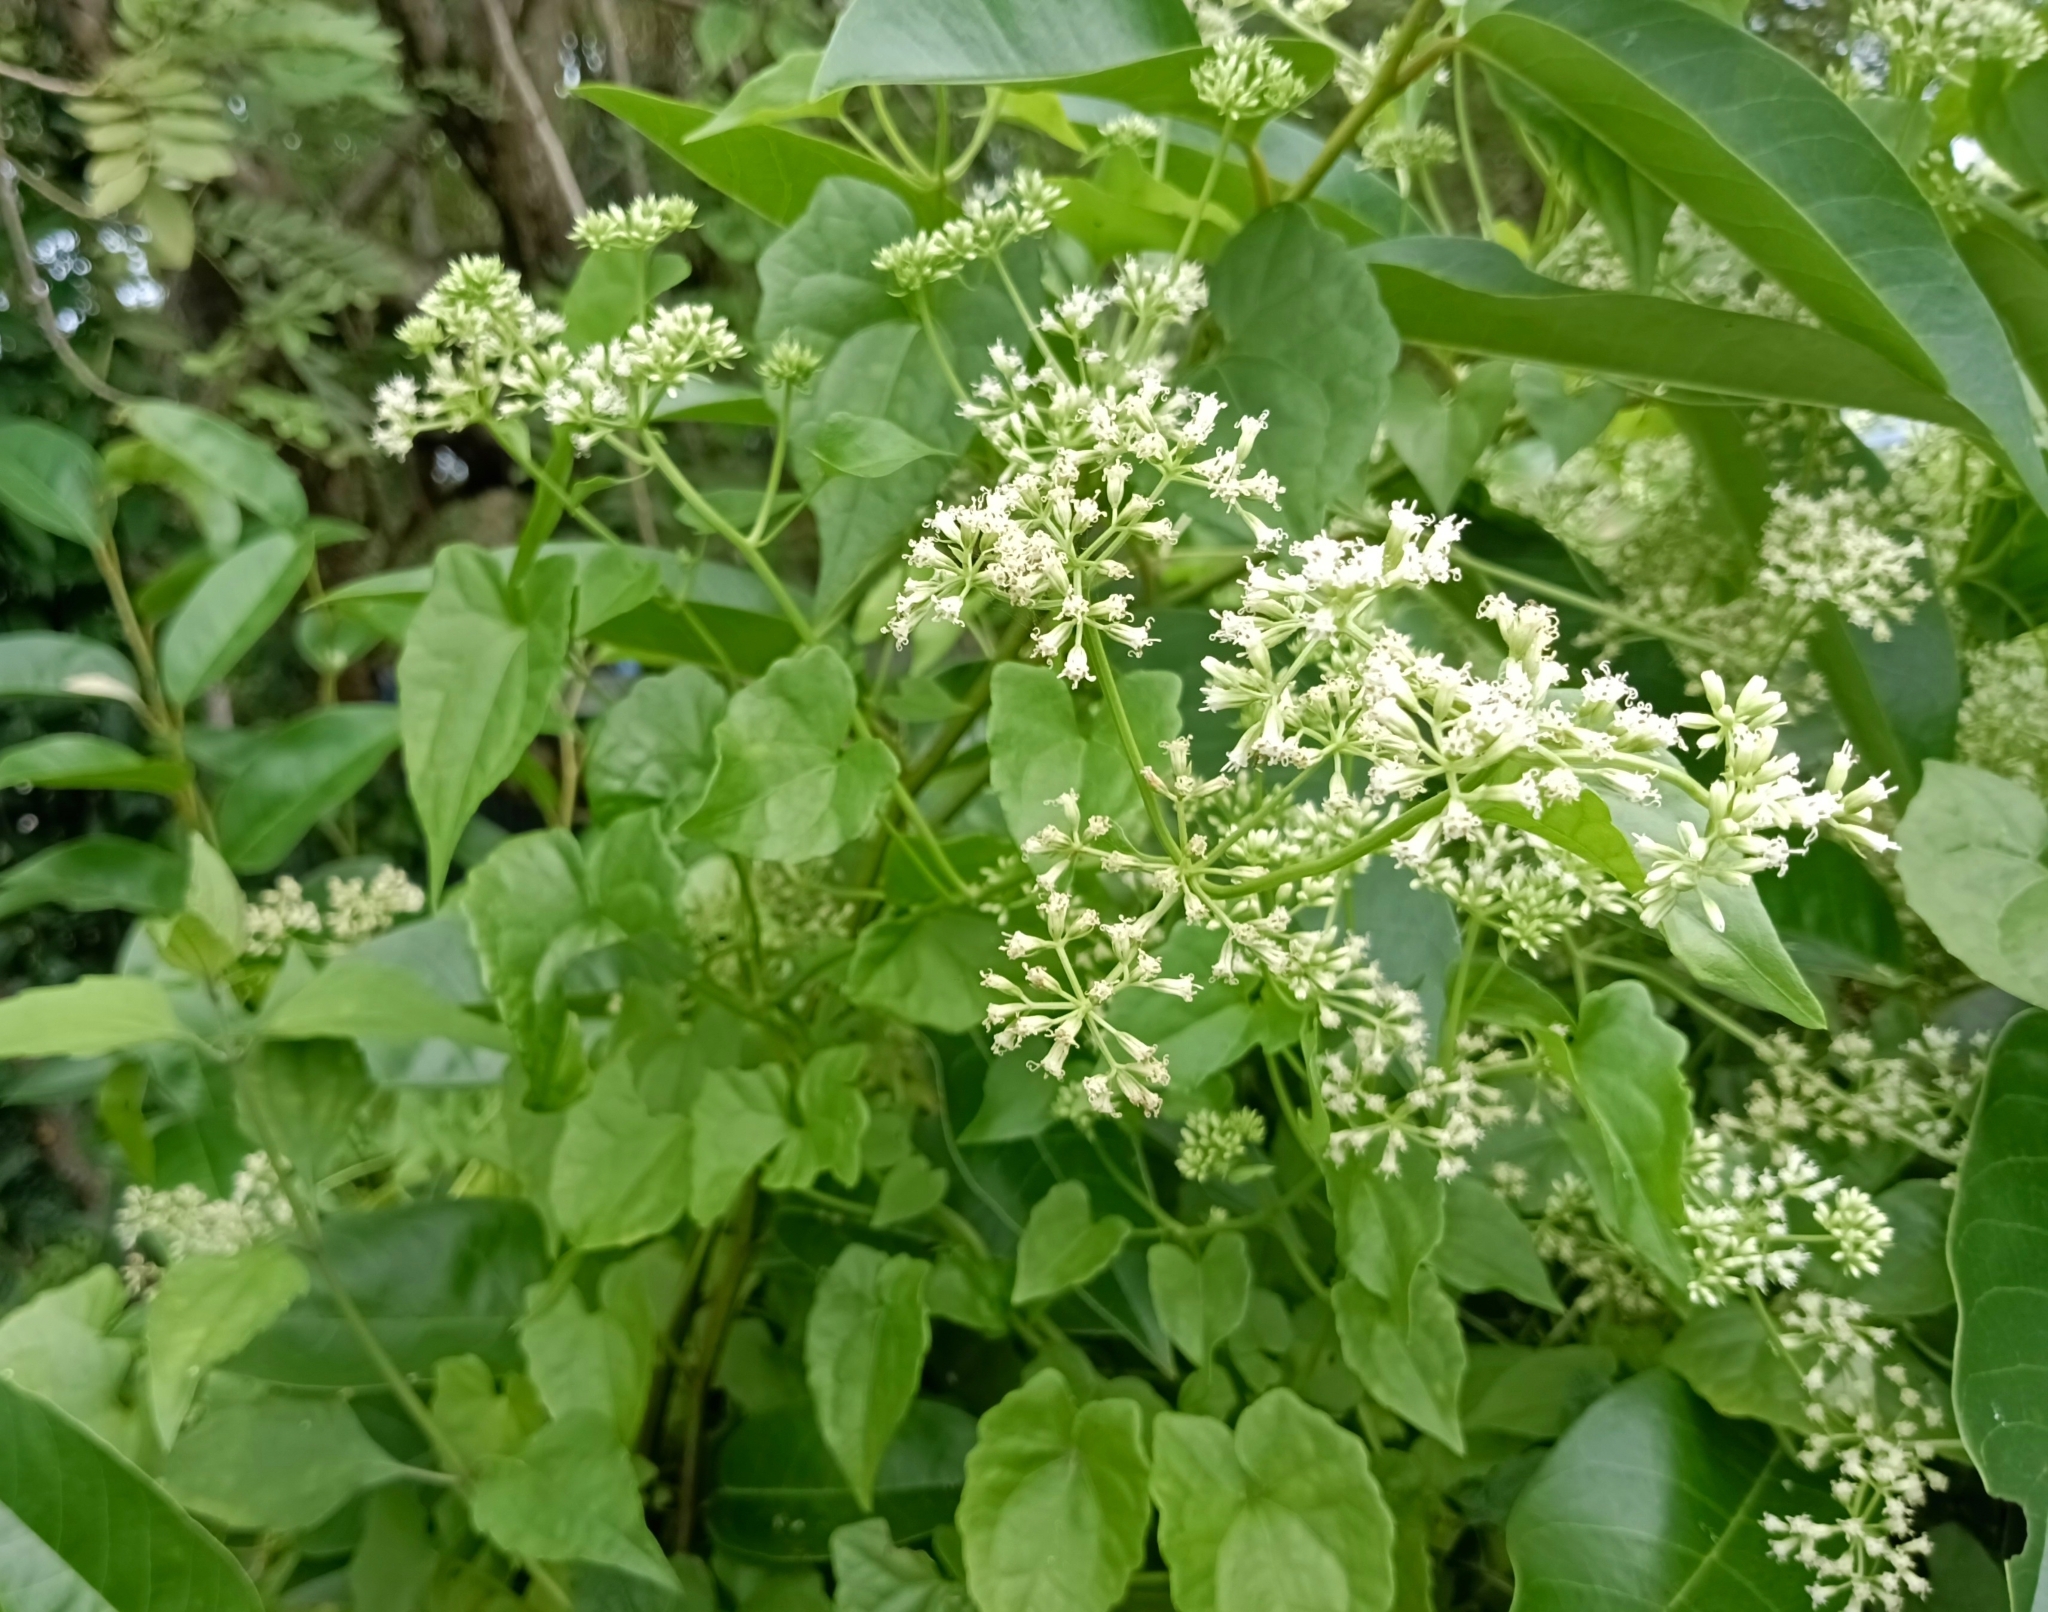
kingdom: Plantae
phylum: Tracheophyta
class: Magnoliopsida
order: Asterales
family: Asteraceae
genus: Mikania
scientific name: Mikania micrantha
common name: Mile-a-minute
